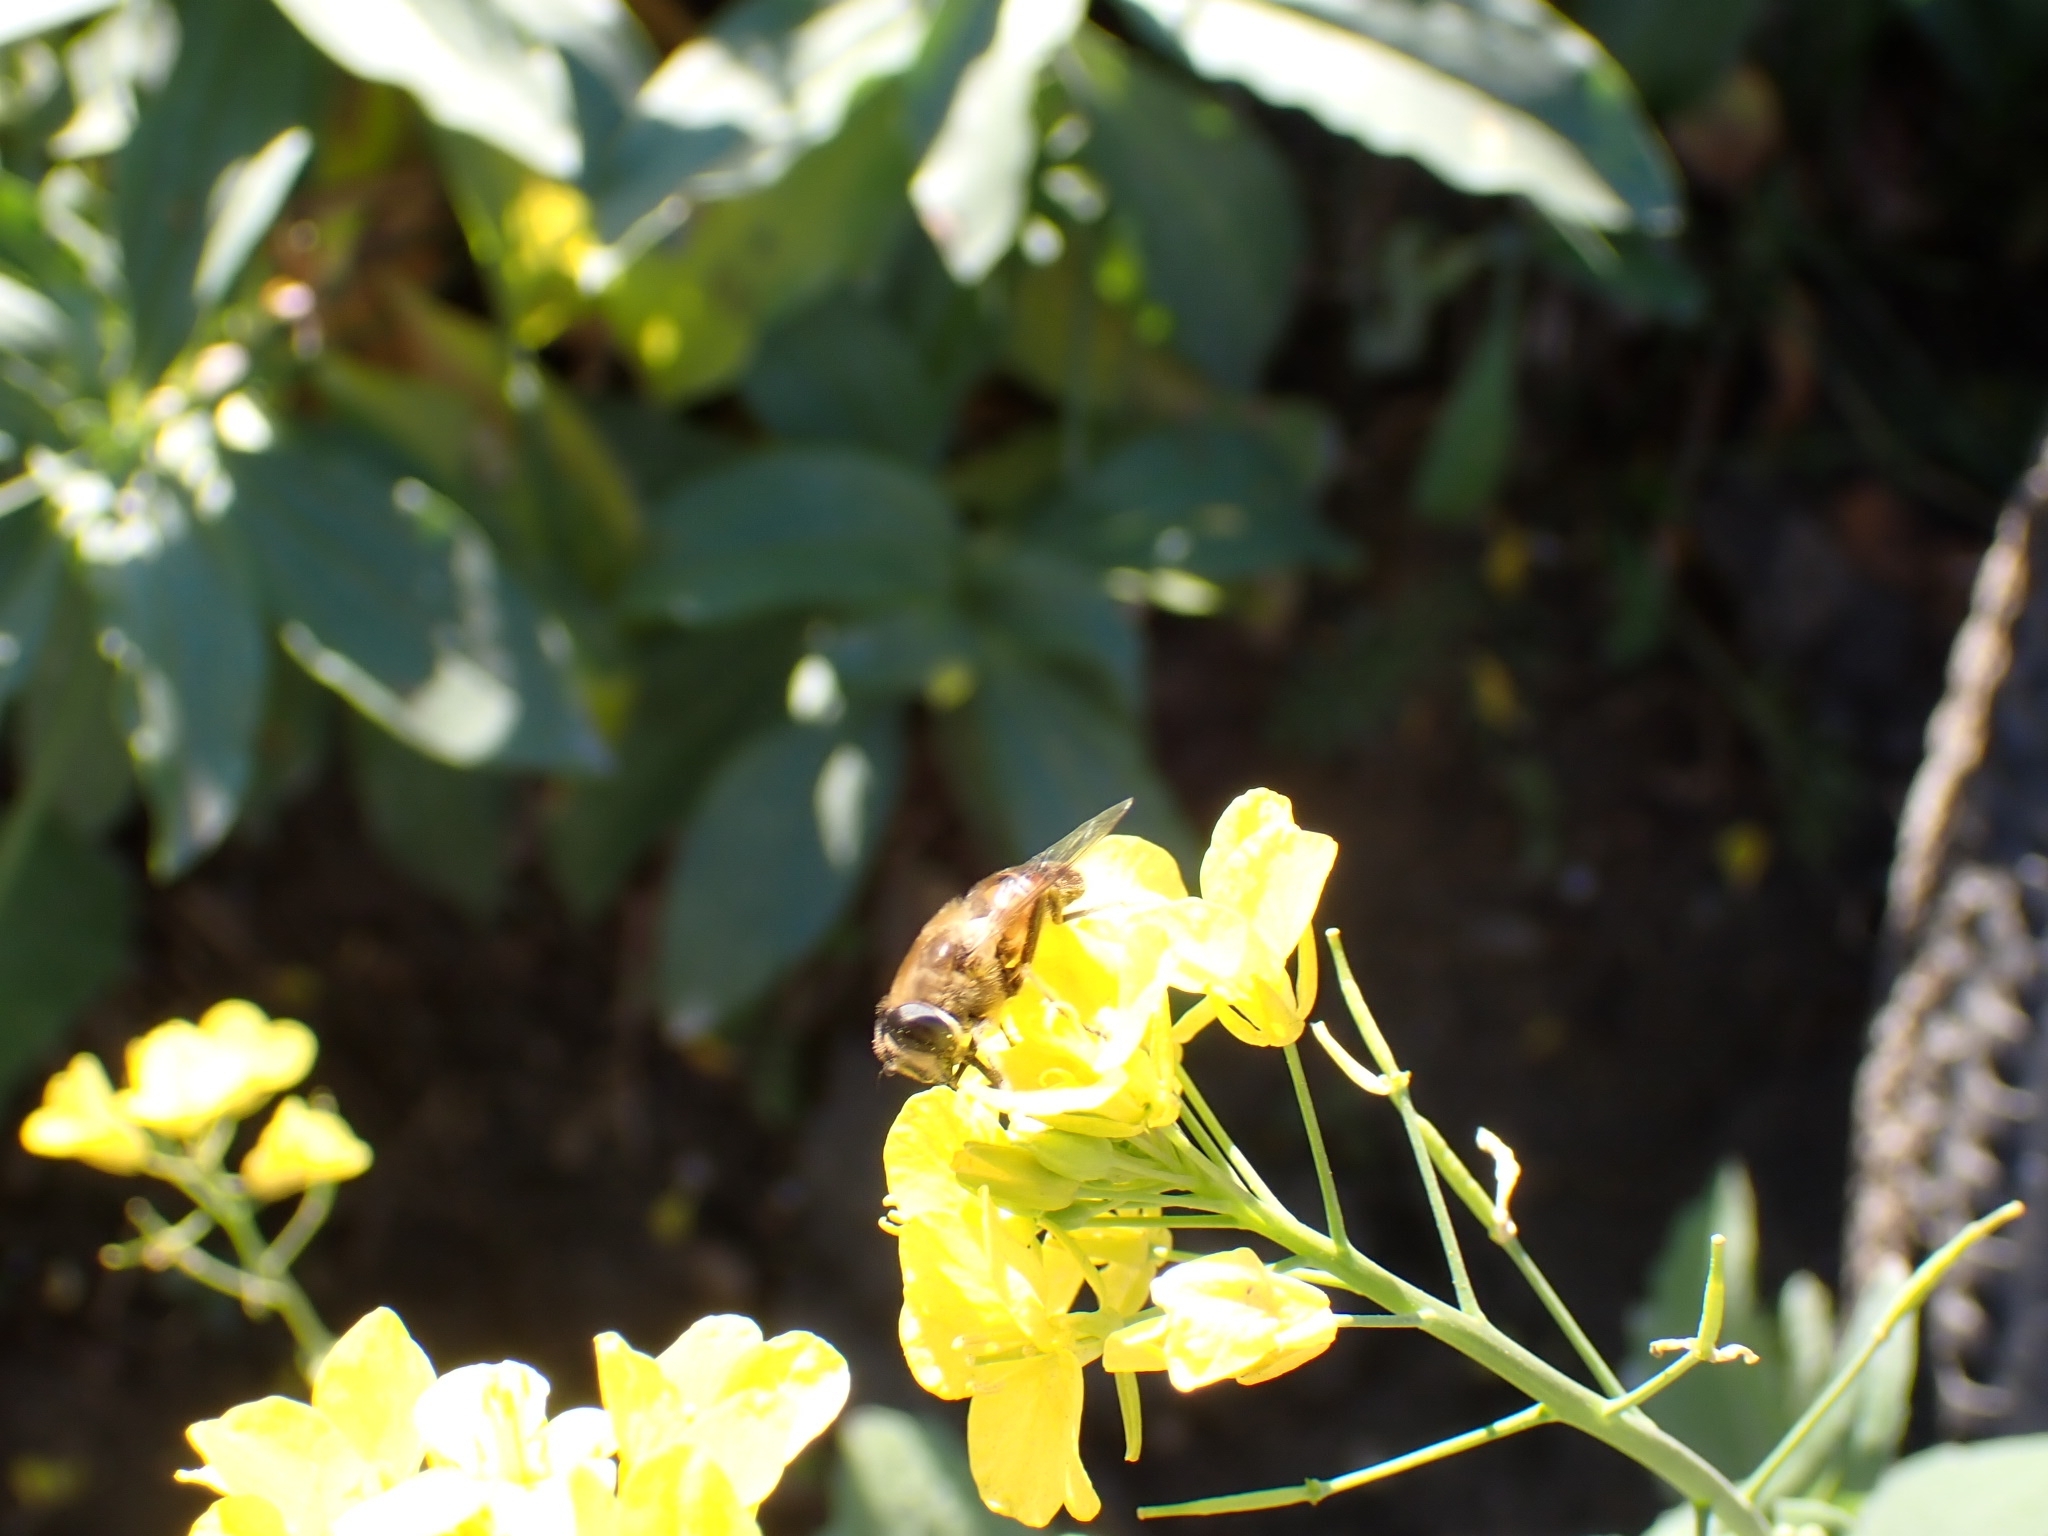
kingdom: Animalia
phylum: Arthropoda
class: Insecta
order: Diptera
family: Syrphidae
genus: Eristalis
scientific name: Eristalis tenax
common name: Drone fly
